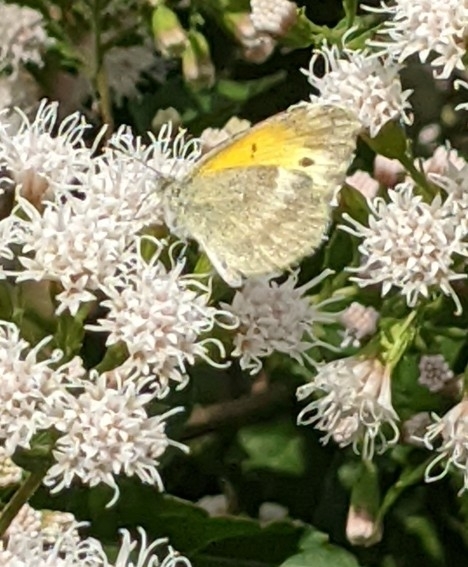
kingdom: Animalia
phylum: Arthropoda
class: Insecta
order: Lepidoptera
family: Pieridae
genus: Nathalis
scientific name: Nathalis iole
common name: Dainty sulphur
